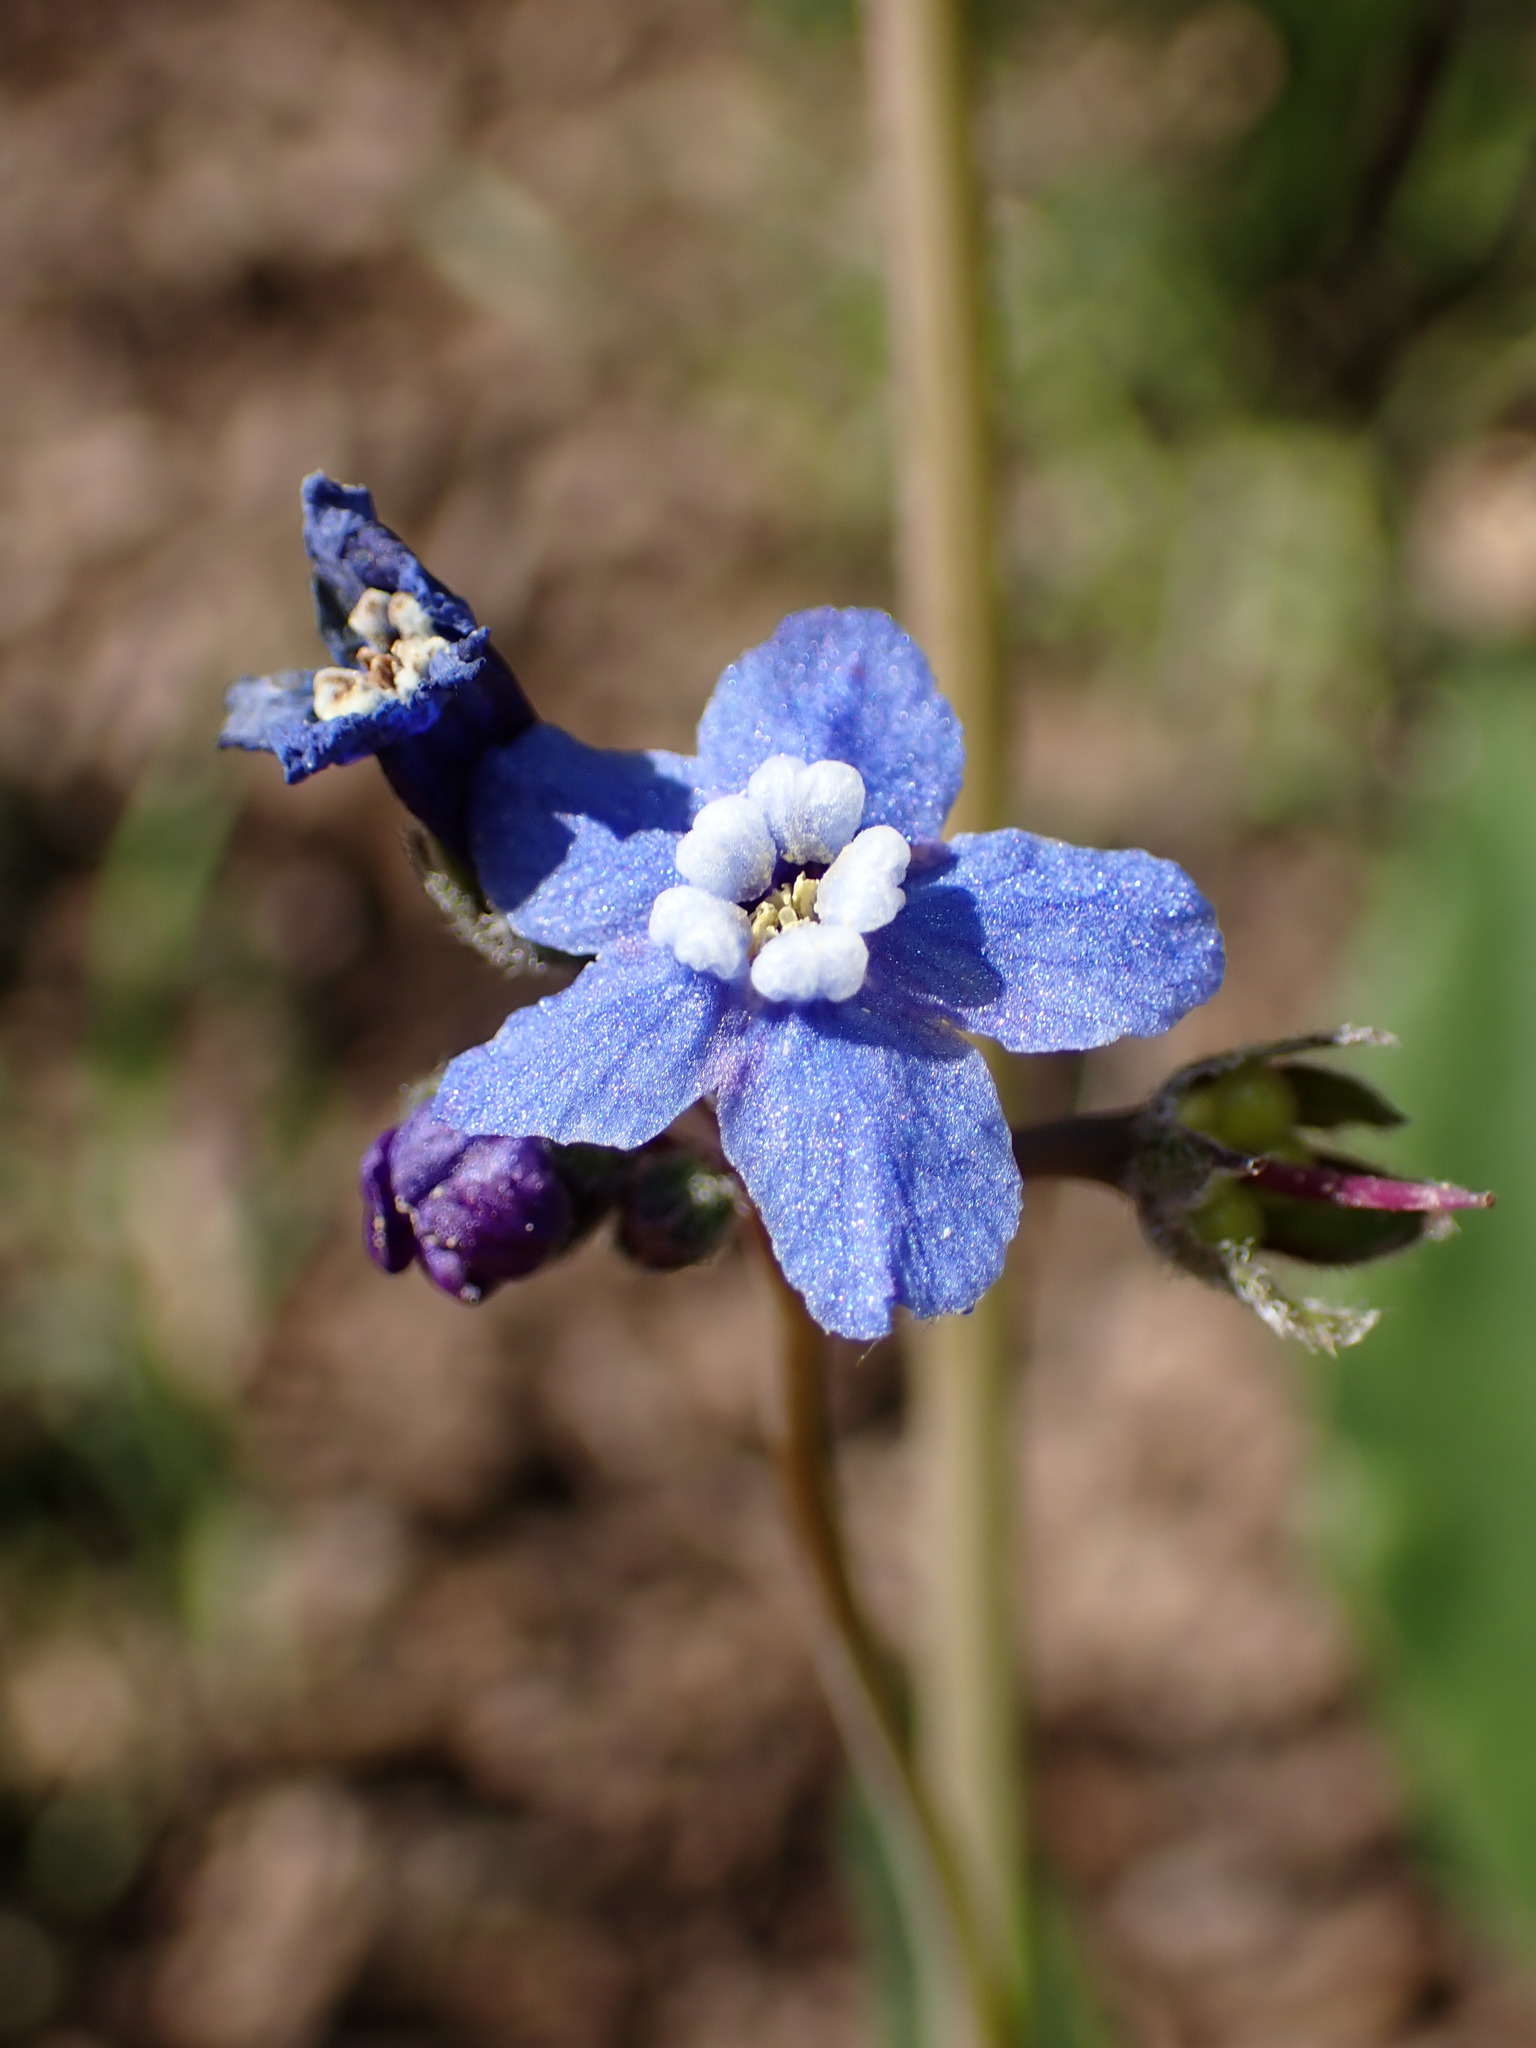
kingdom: Plantae
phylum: Tracheophyta
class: Magnoliopsida
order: Boraginales
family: Boraginaceae
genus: Adelinia
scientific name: Adelinia grande
